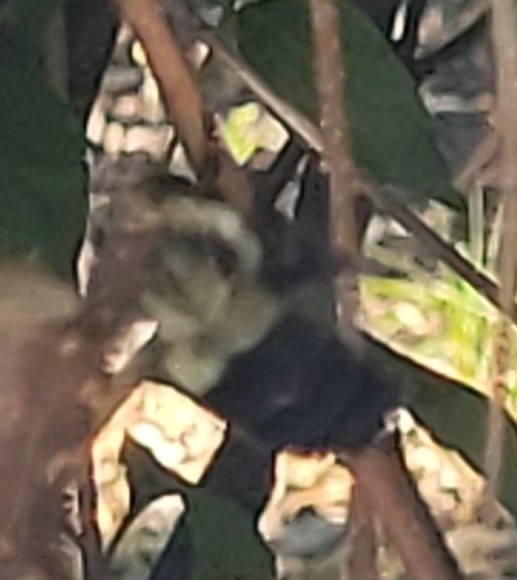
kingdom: Animalia
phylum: Arthropoda
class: Insecta
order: Hymenoptera
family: Apidae
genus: Bombus
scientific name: Bombus impatiens
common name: Common eastern bumble bee
